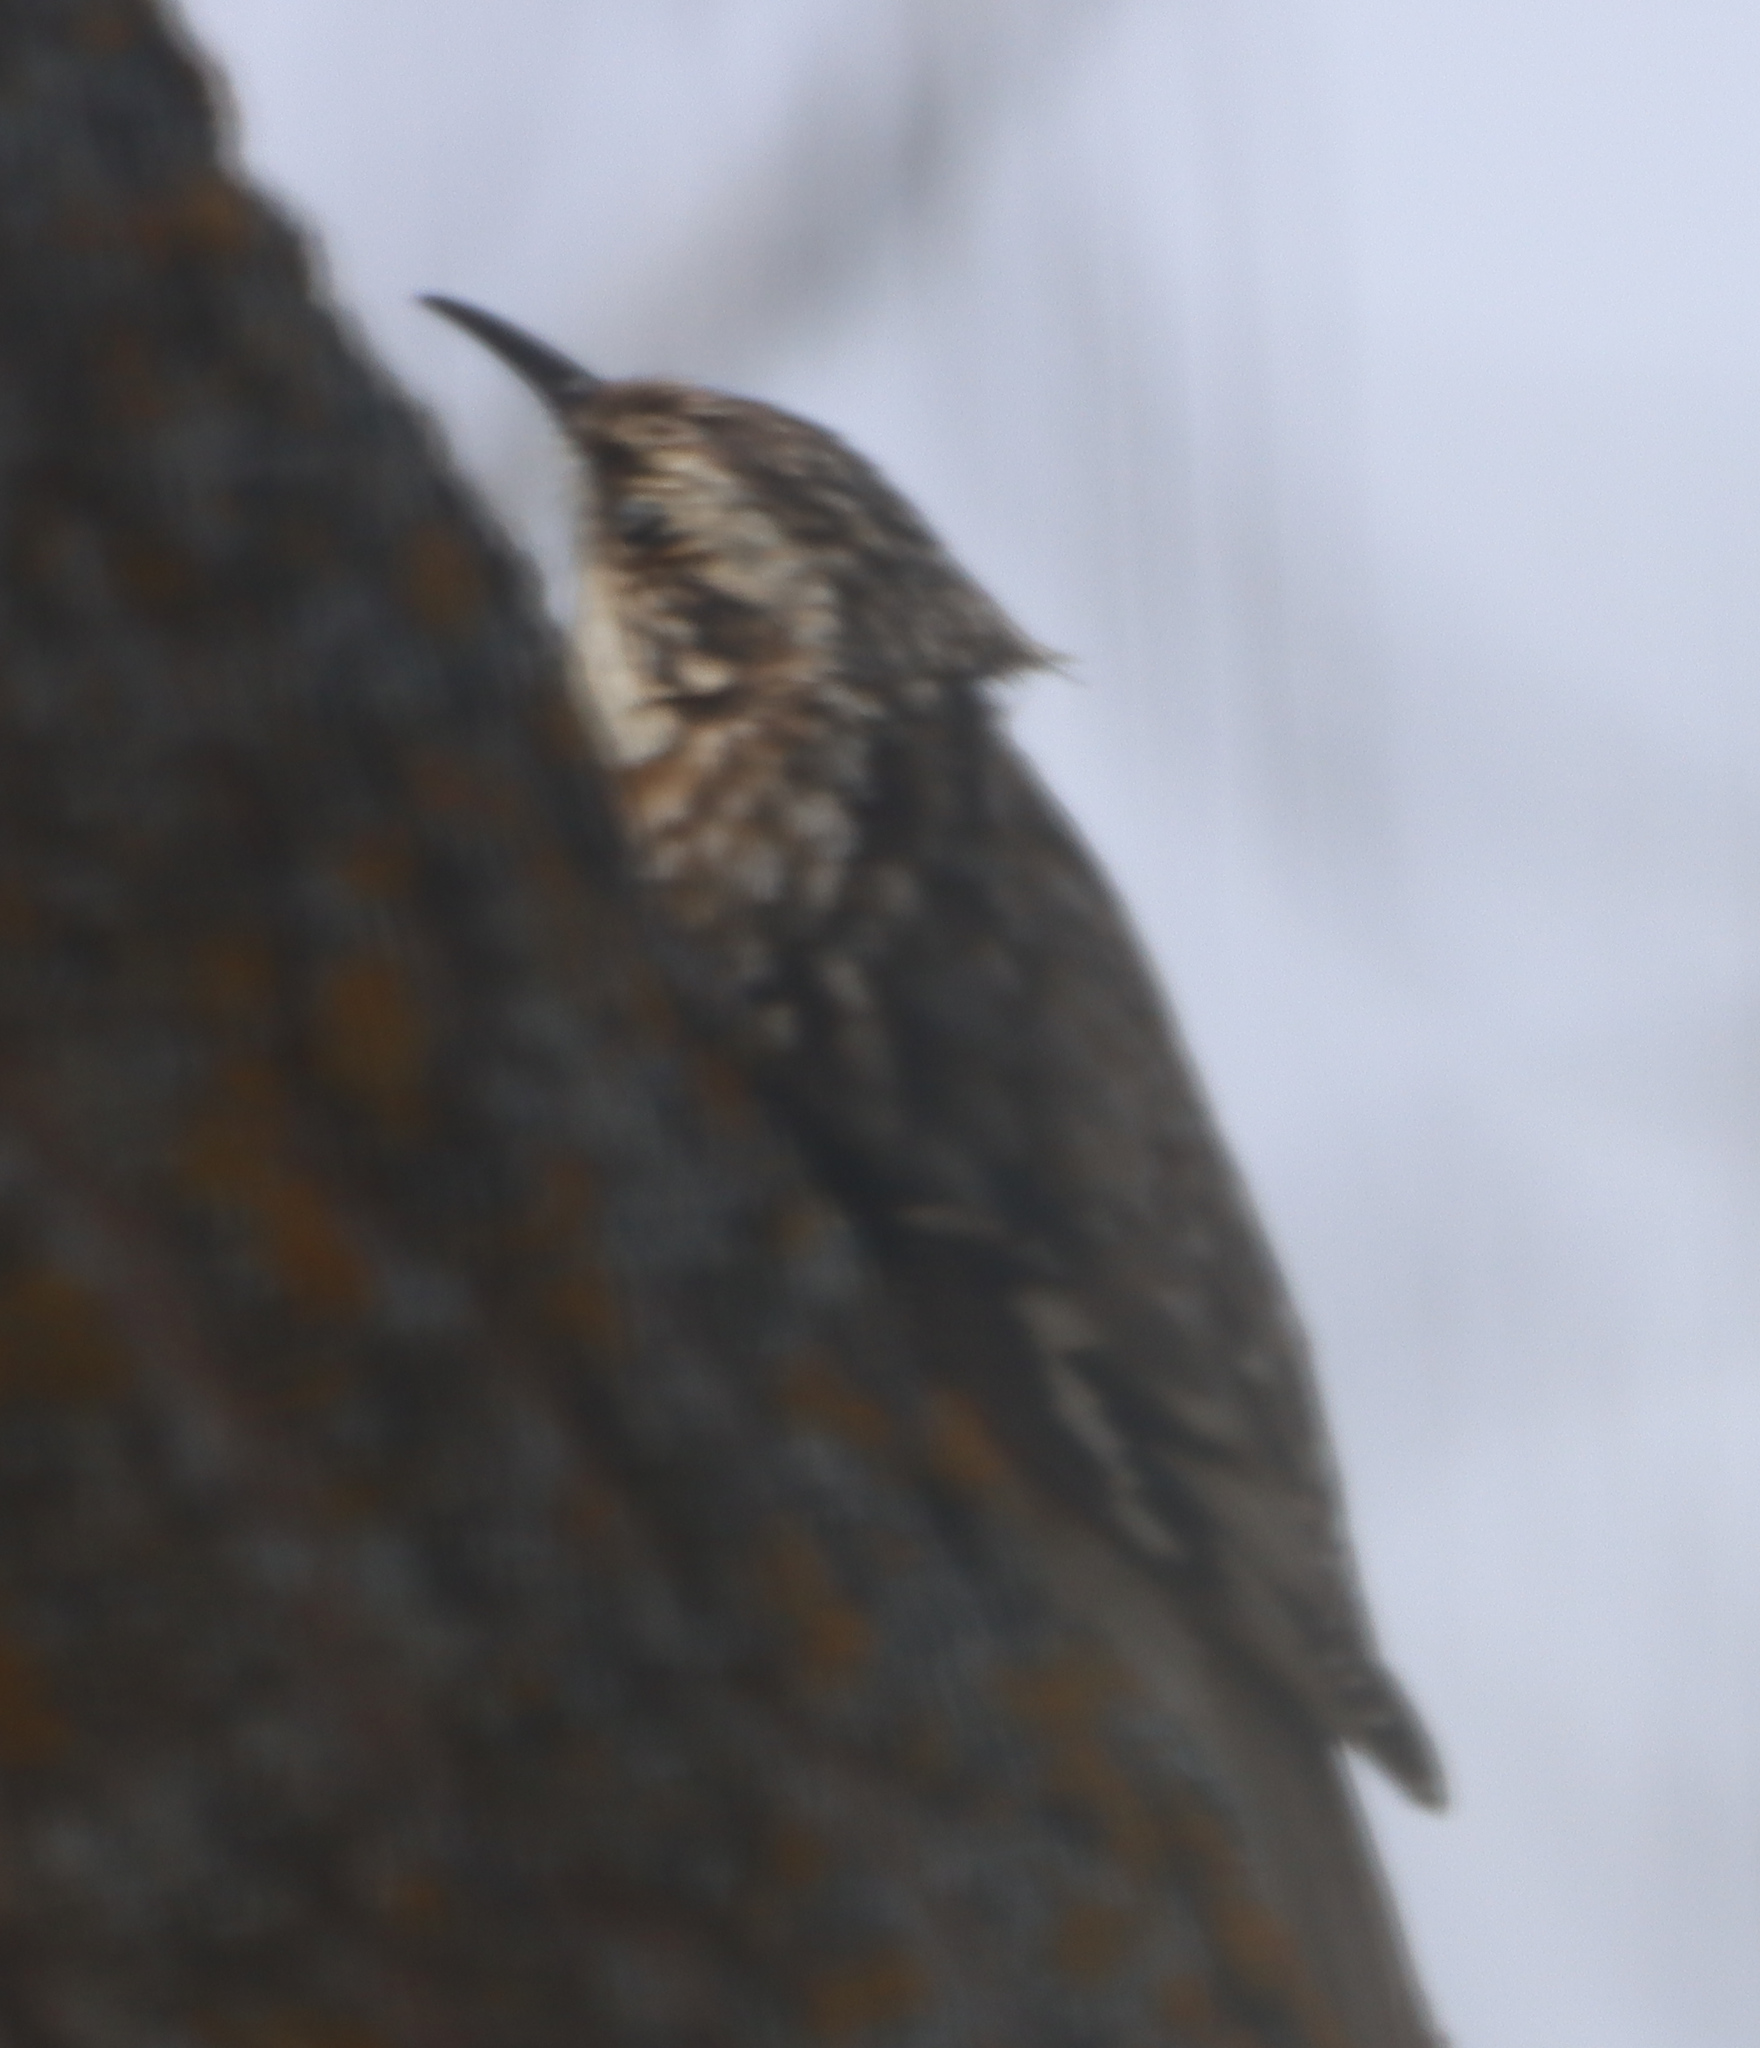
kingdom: Animalia
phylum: Chordata
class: Aves
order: Passeriformes
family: Certhiidae
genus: Certhia
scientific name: Certhia americana
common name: Brown creeper
